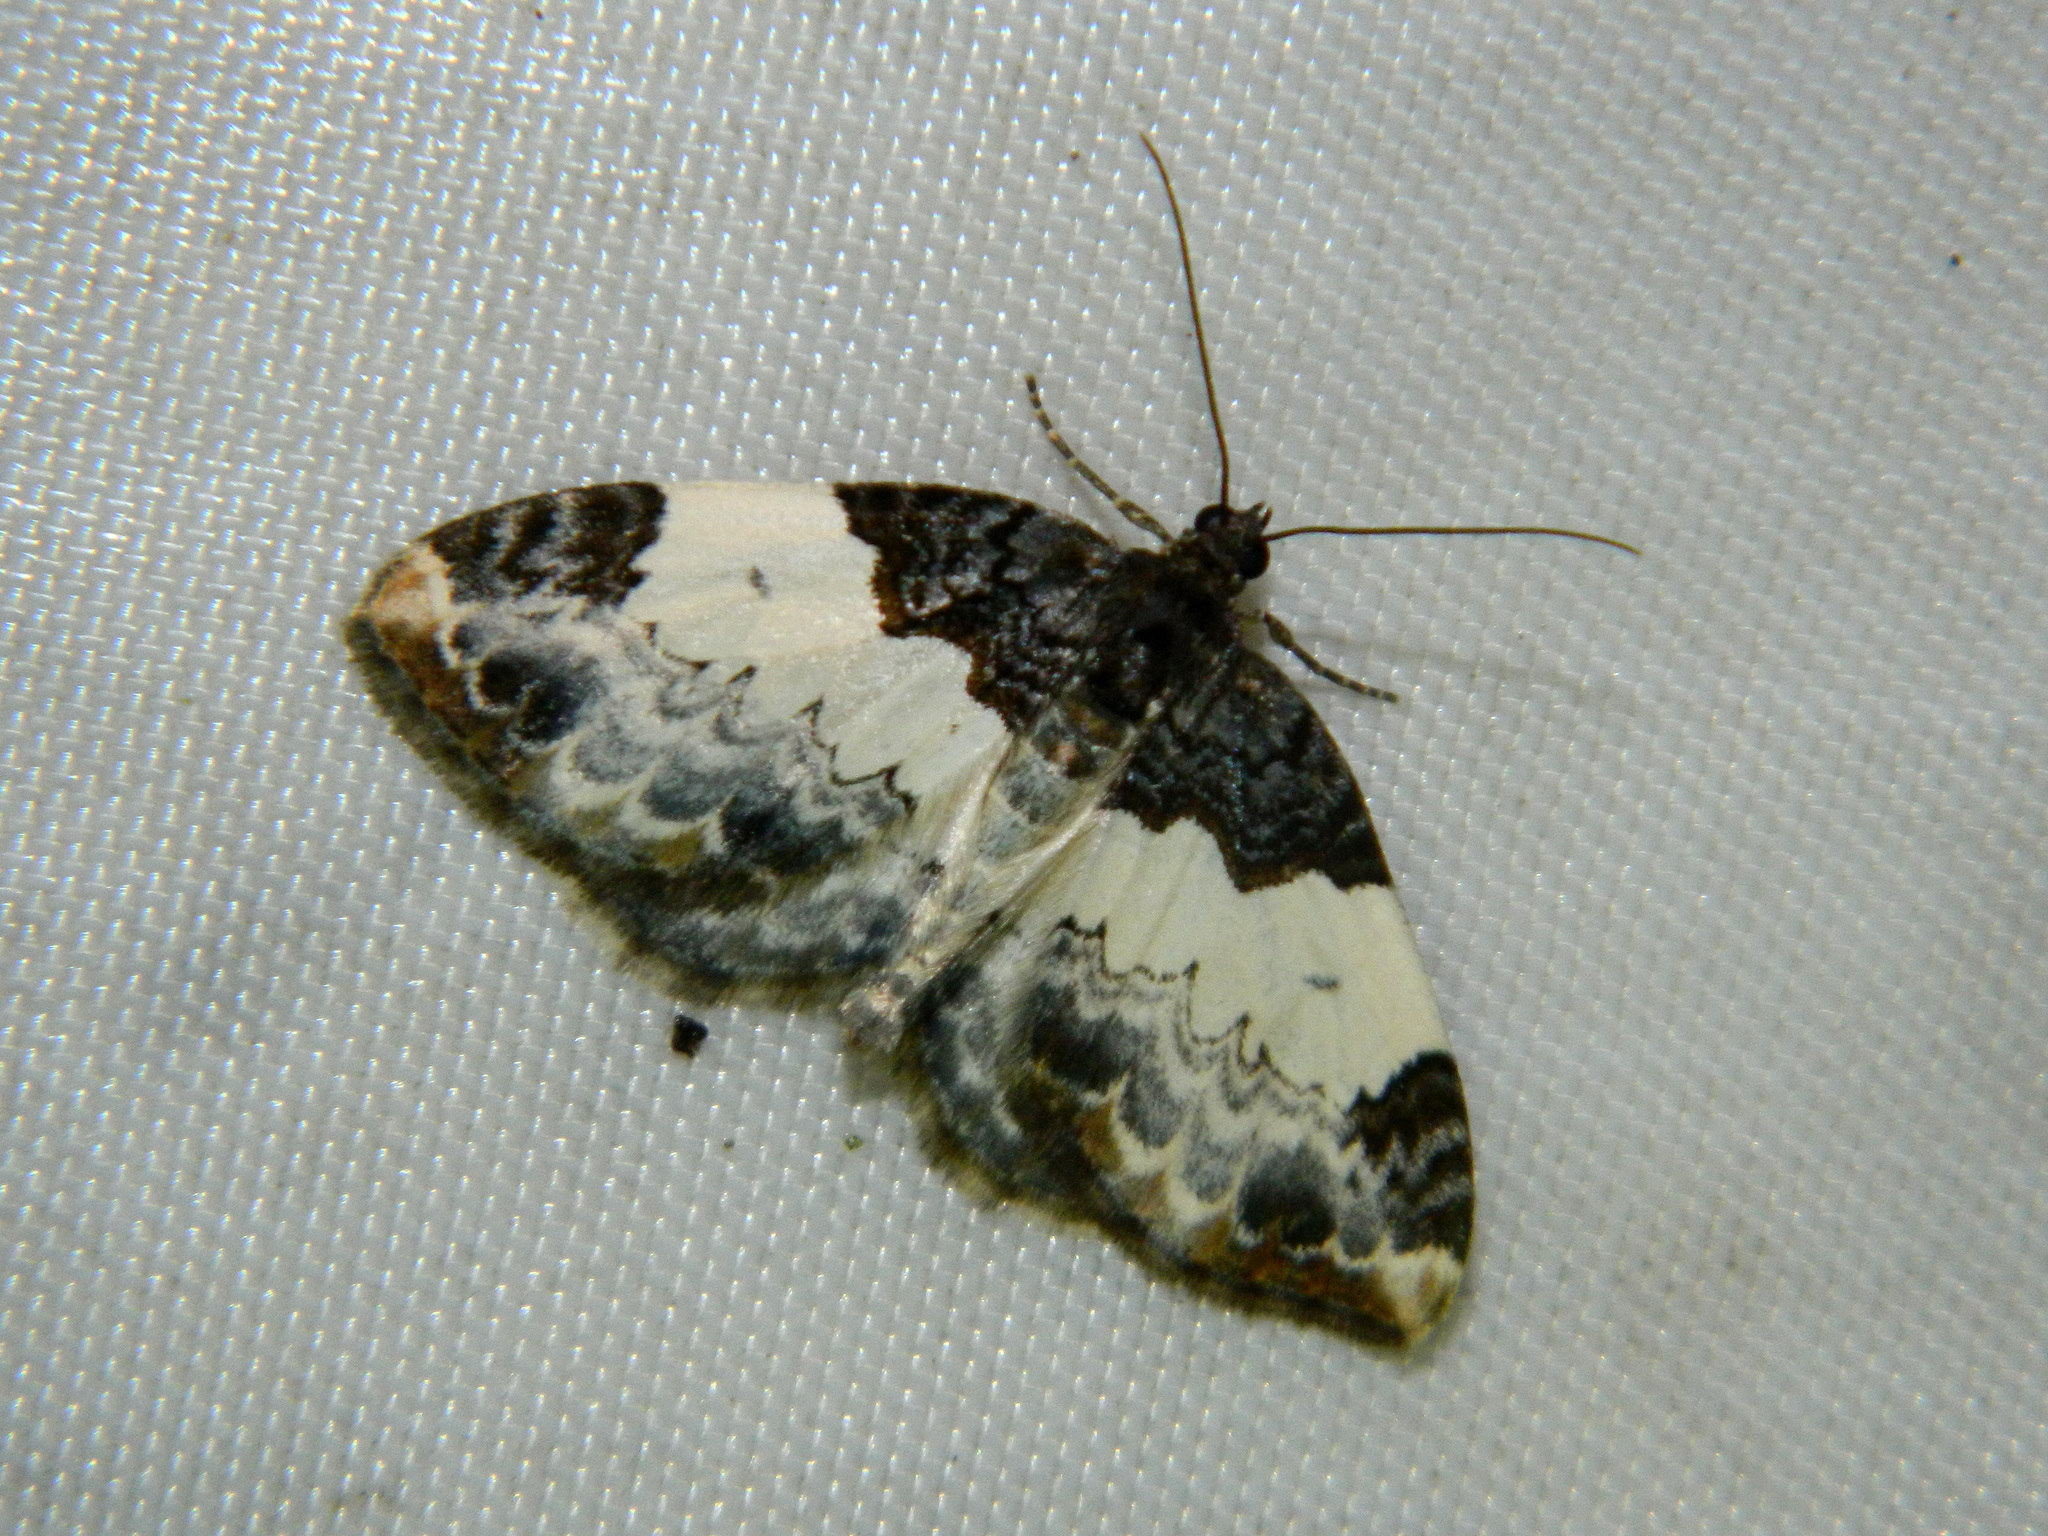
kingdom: Animalia
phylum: Arthropoda
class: Insecta
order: Lepidoptera
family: Geometridae
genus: Mesoleuca
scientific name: Mesoleuca ruficillata
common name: White-ribboned carpet moth
